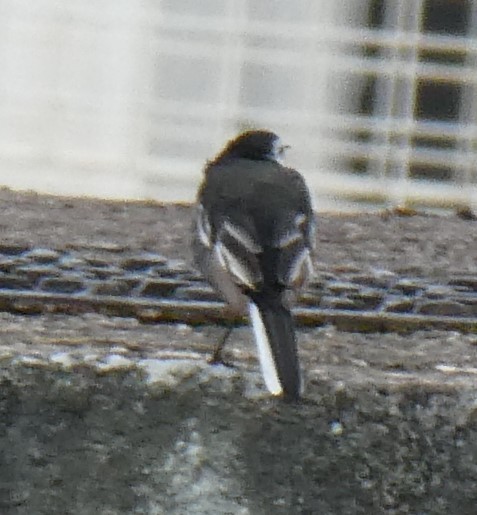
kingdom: Animalia
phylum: Chordata
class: Aves
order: Passeriformes
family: Motacillidae
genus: Motacilla
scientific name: Motacilla alba
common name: White wagtail
